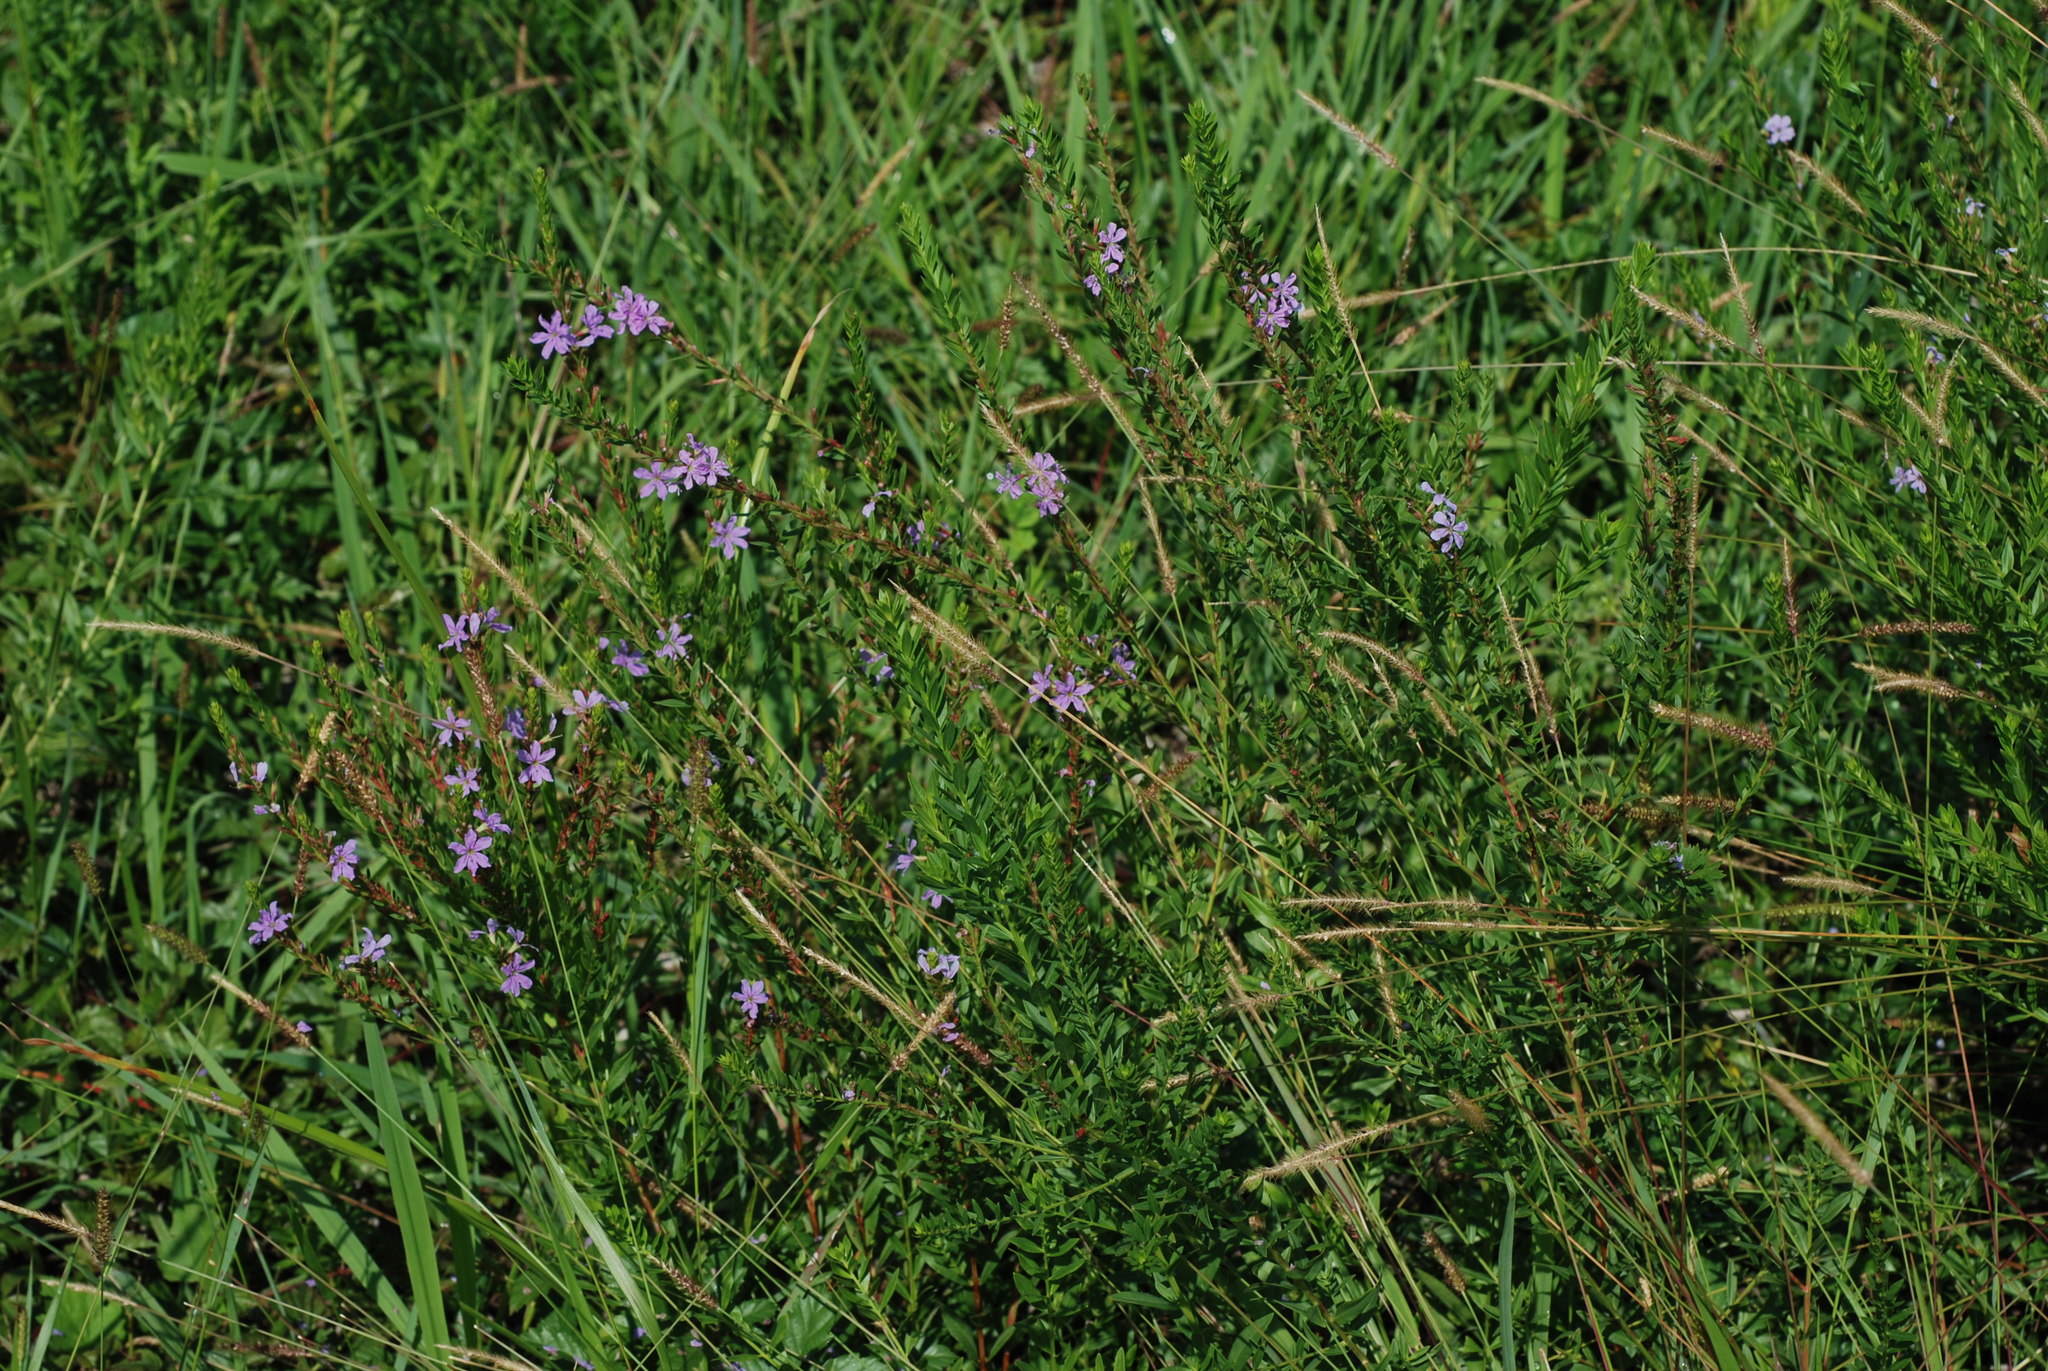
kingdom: Plantae
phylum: Tracheophyta
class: Magnoliopsida
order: Myrtales
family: Lythraceae
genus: Lythrum
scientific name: Lythrum alatum
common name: Winged loosestrife
